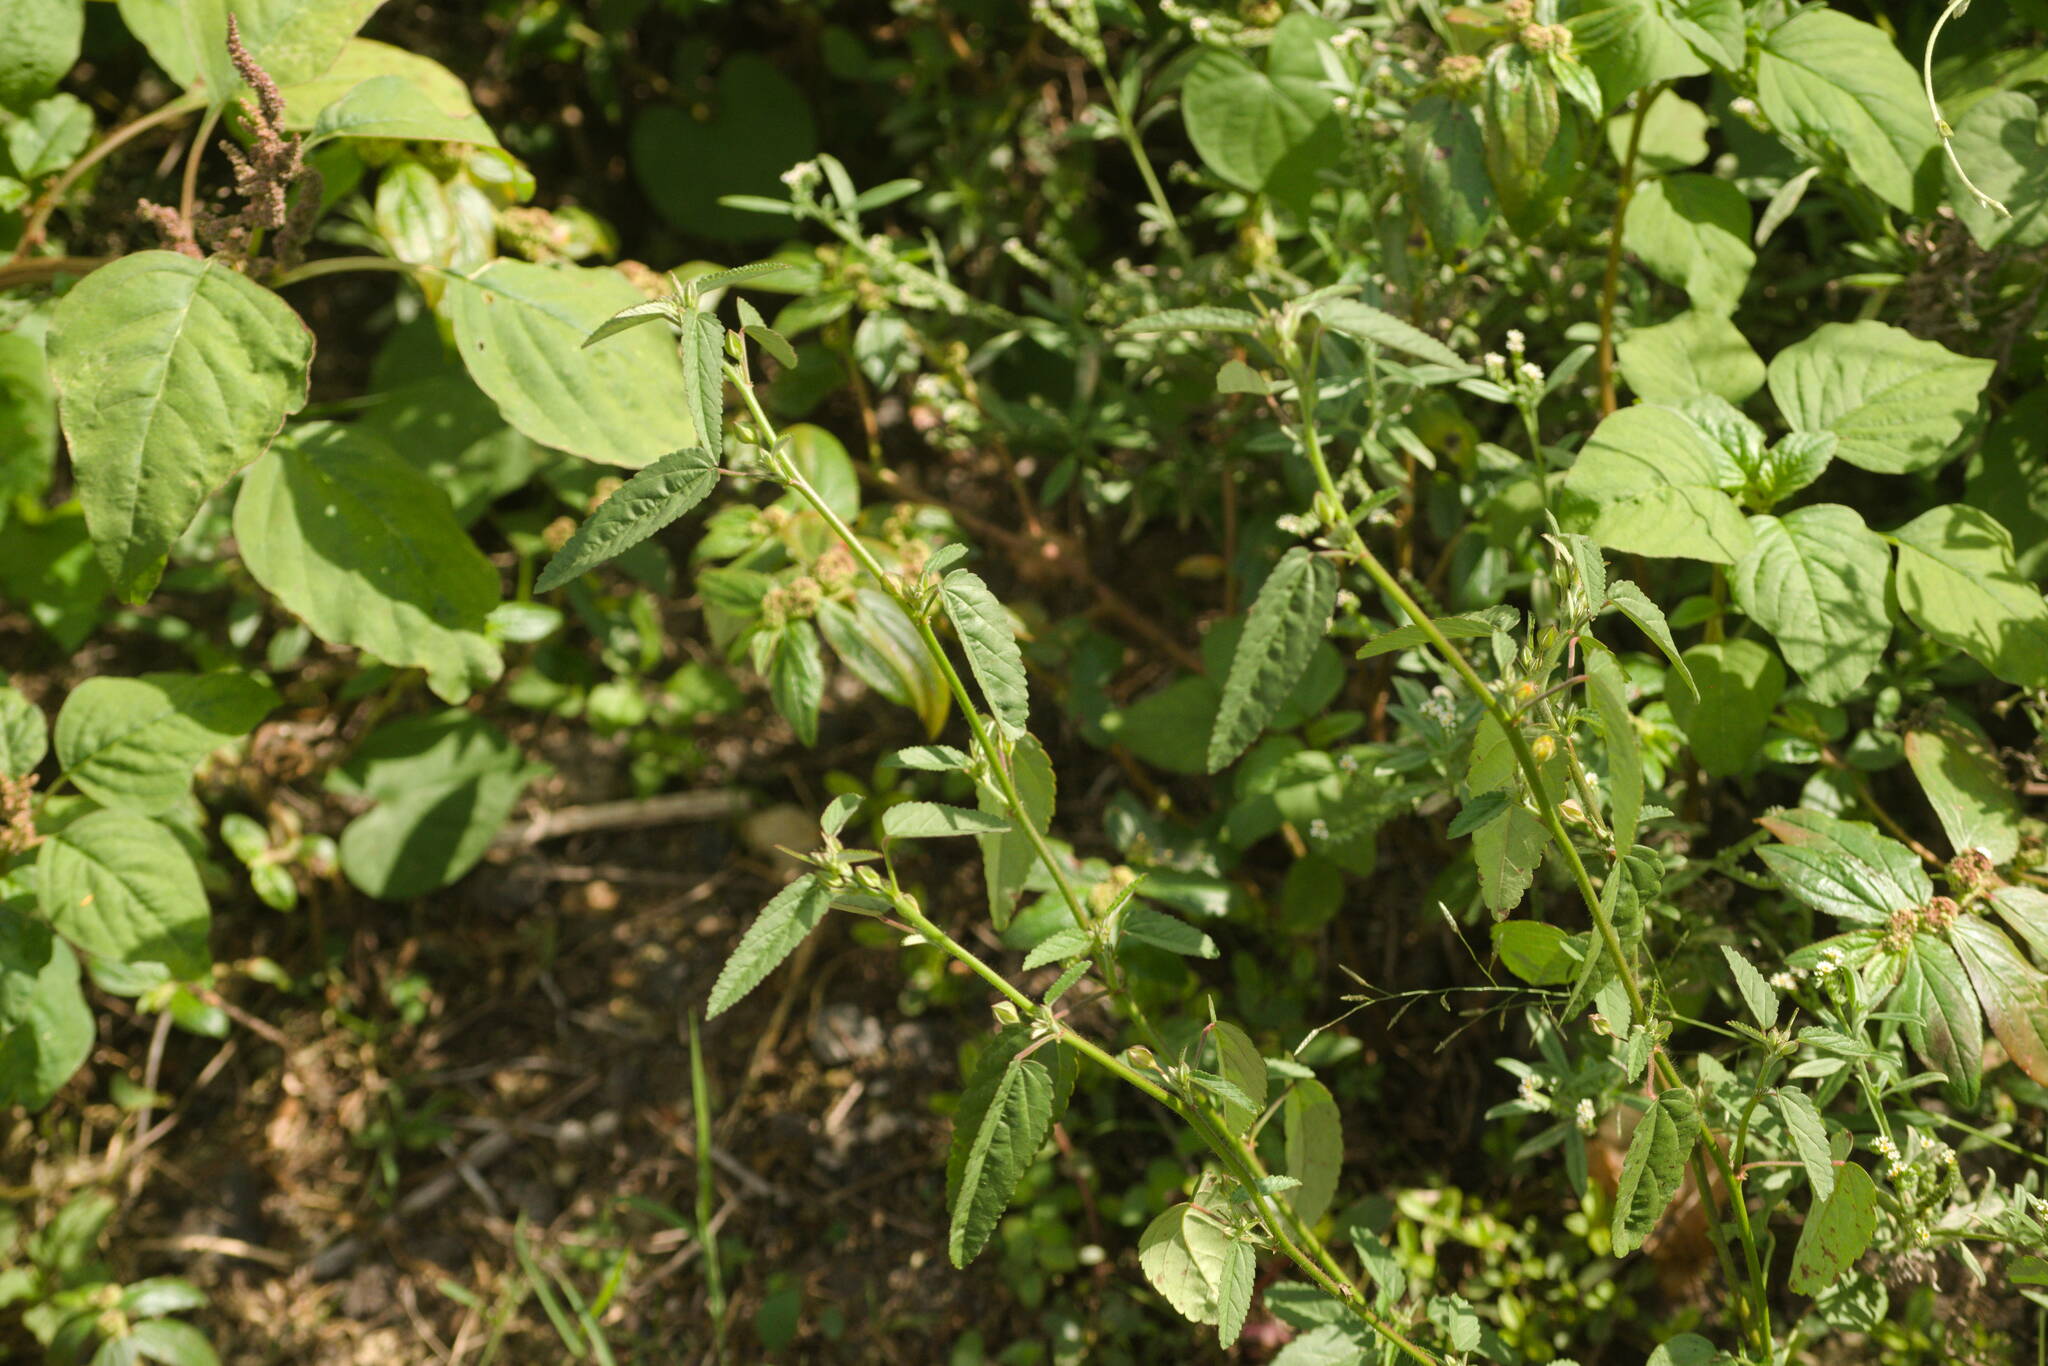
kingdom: Plantae
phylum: Tracheophyta
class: Magnoliopsida
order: Malvales
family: Malvaceae
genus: Sida
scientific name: Sida spinosa
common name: Prickly fanpetals
